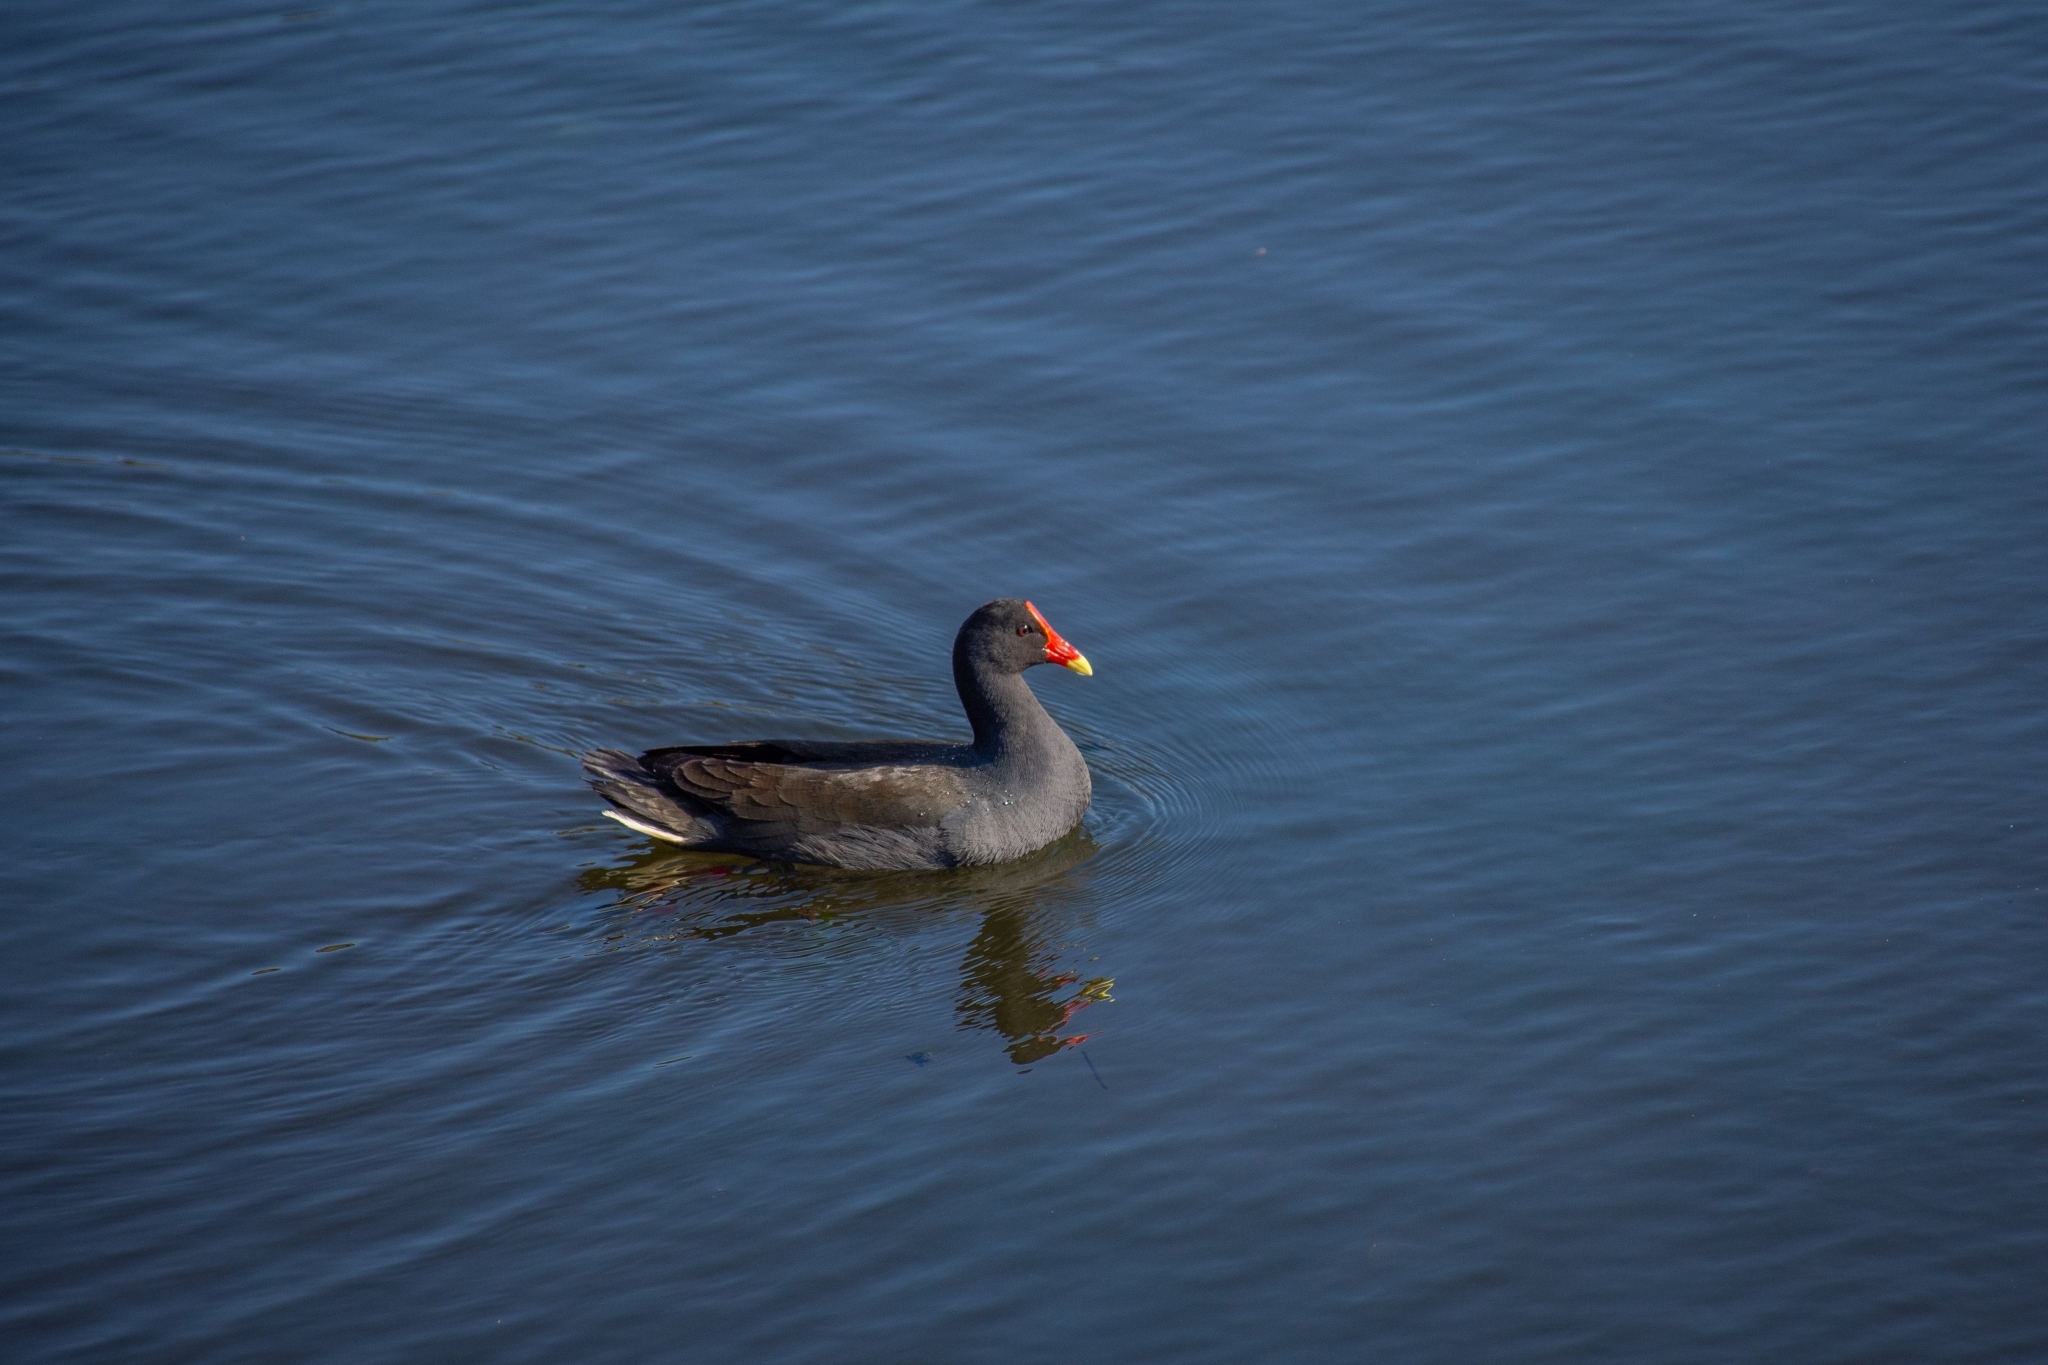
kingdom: Animalia
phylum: Chordata
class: Aves
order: Gruiformes
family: Rallidae
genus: Gallinula
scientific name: Gallinula tenebrosa
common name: Dusky moorhen
